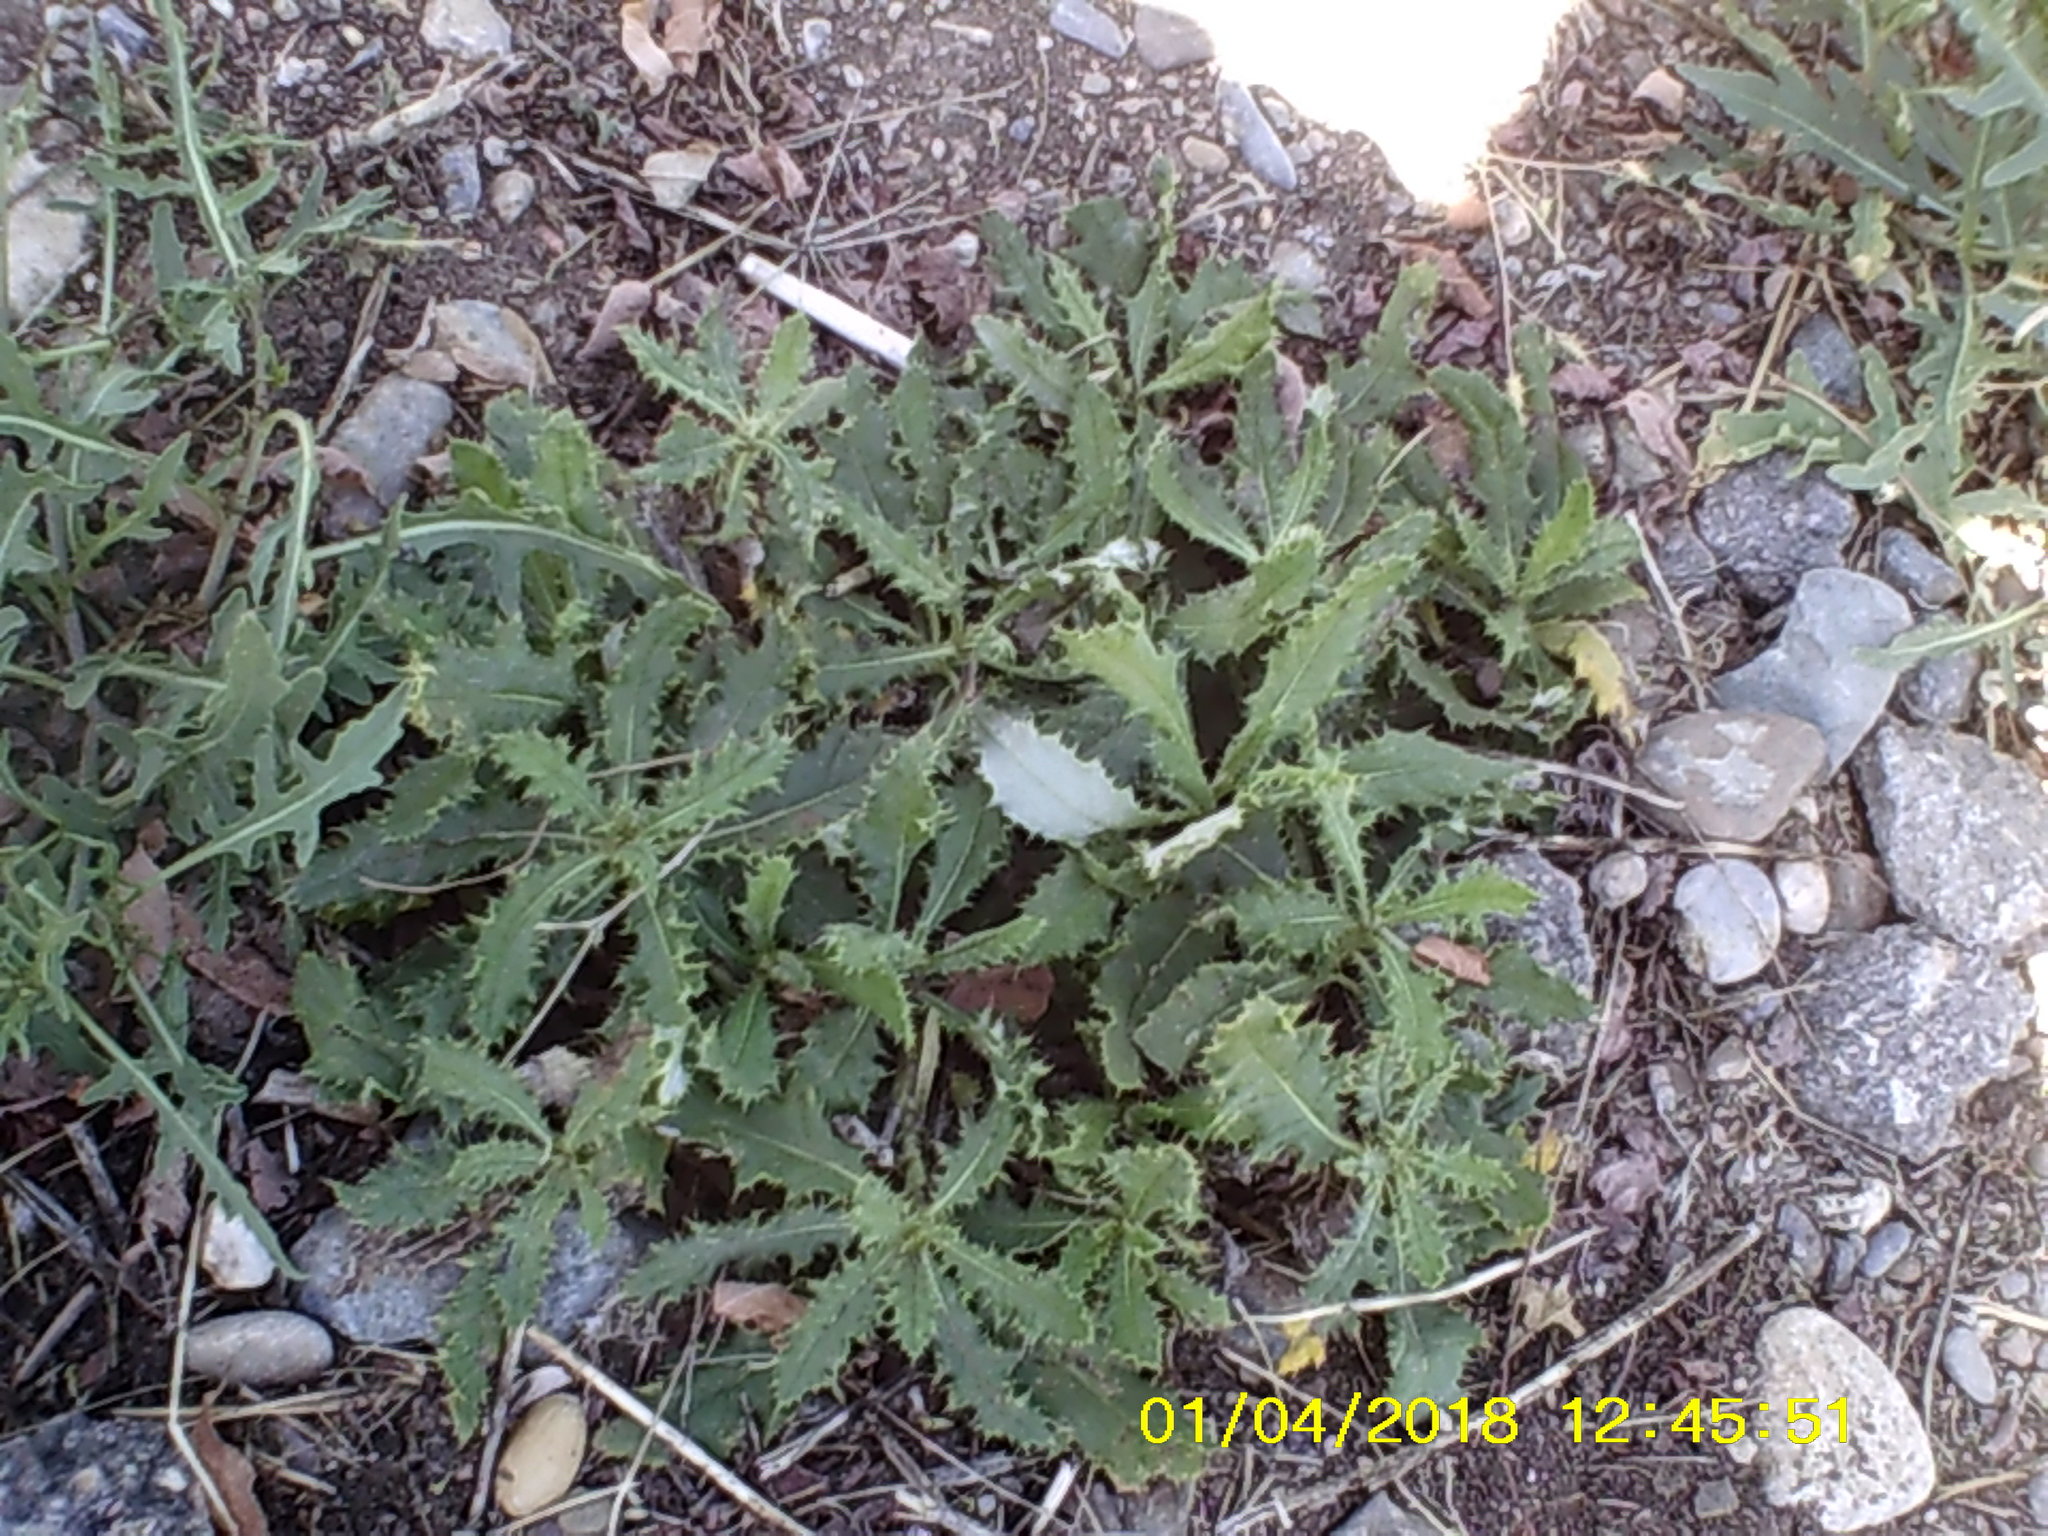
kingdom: Plantae
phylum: Tracheophyta
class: Magnoliopsida
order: Asterales
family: Asteraceae
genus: Cirsium
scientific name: Cirsium arvense
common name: Creeping thistle
